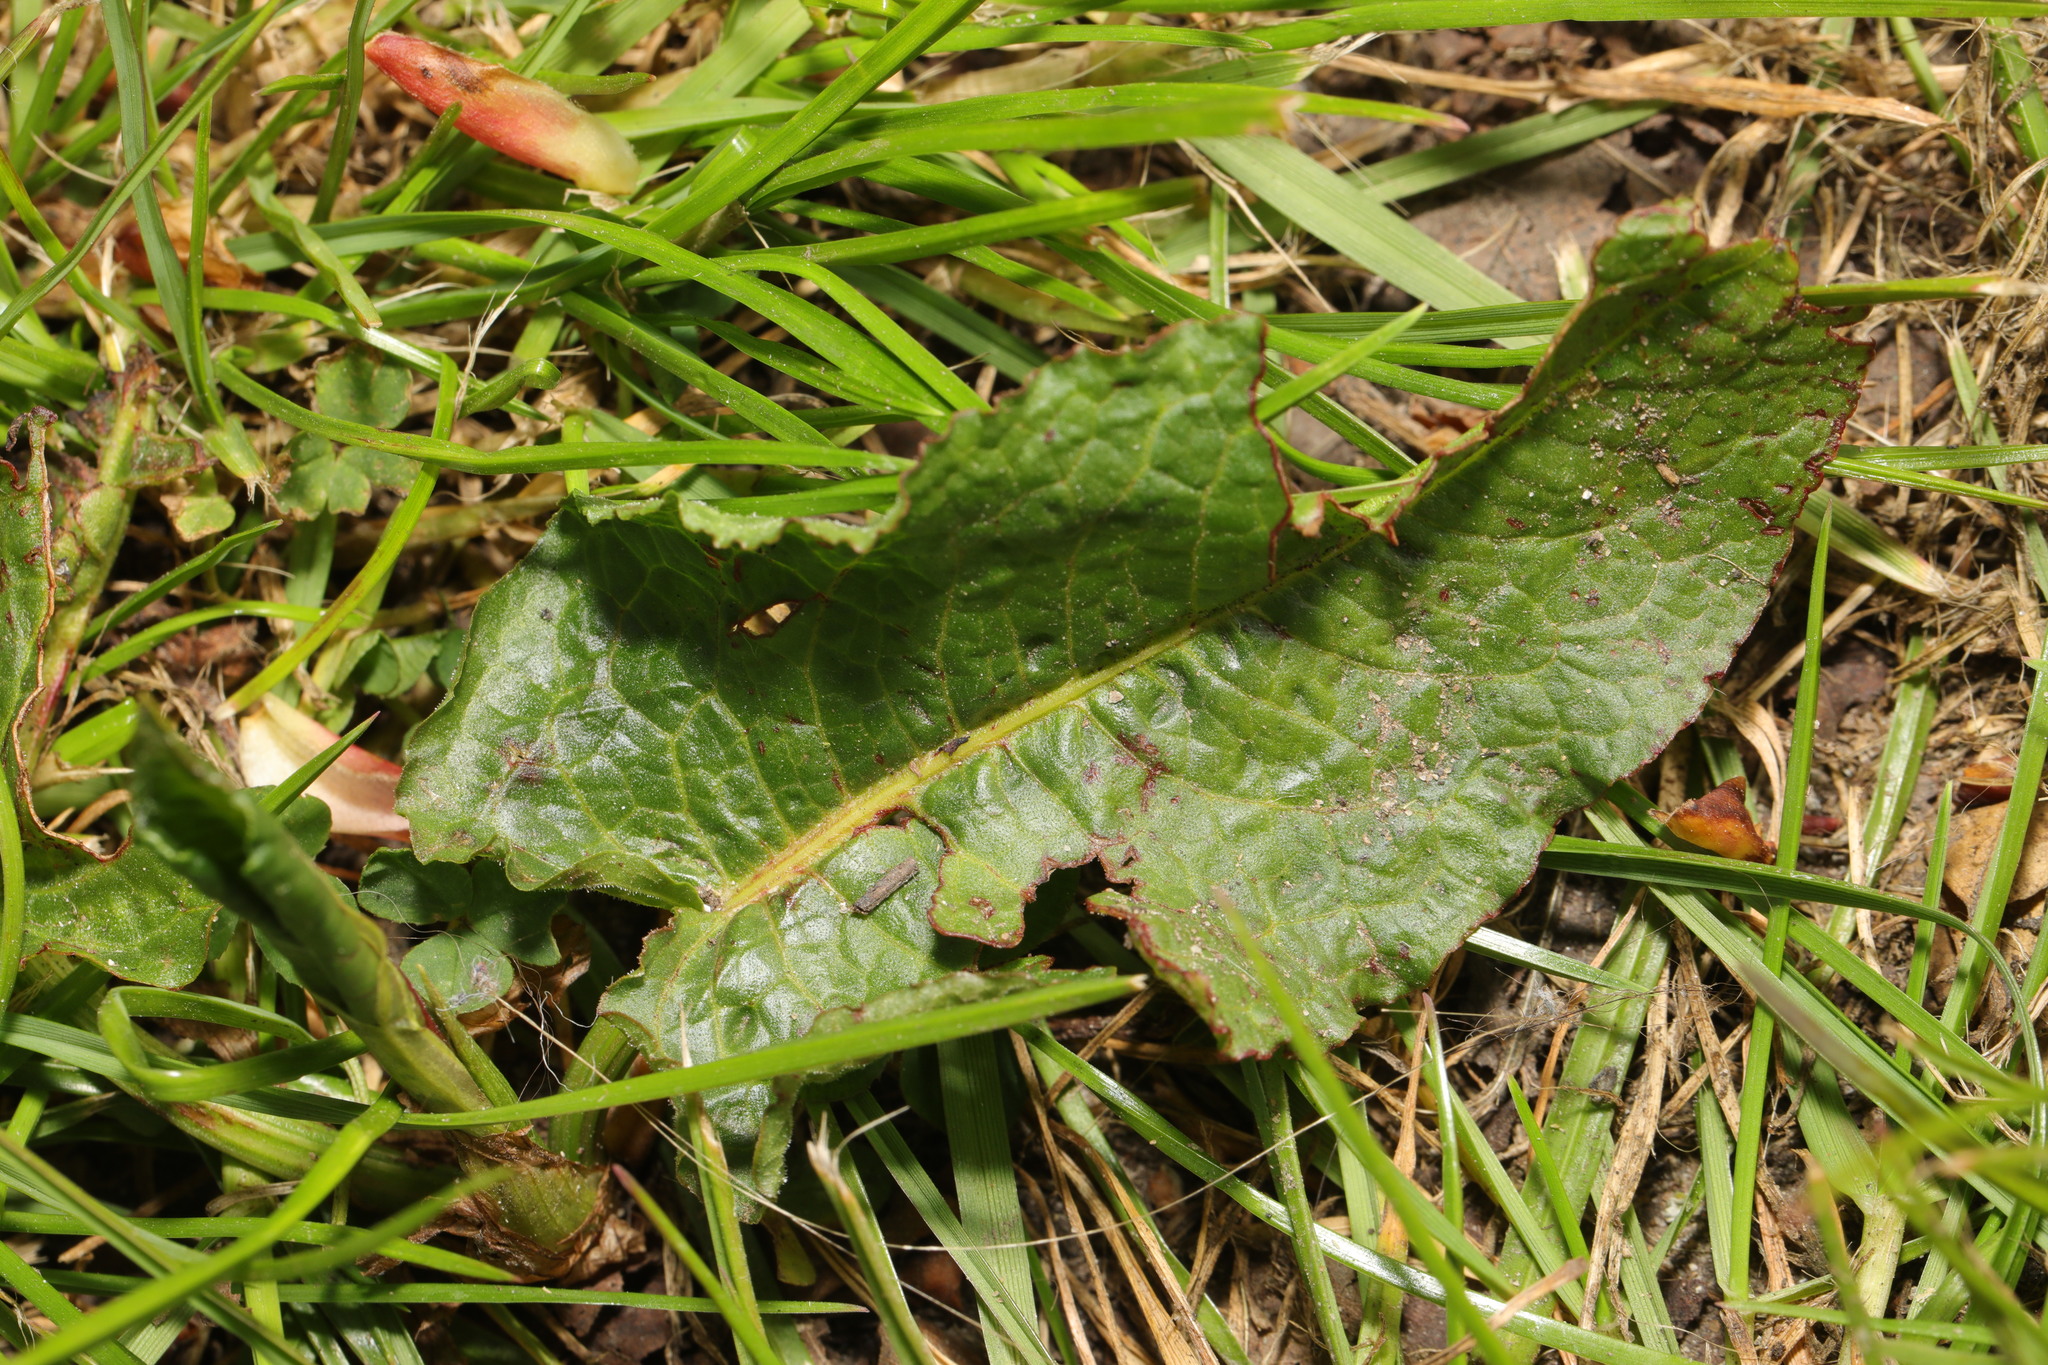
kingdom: Plantae
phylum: Tracheophyta
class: Magnoliopsida
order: Caryophyllales
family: Polygonaceae
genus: Rumex
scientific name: Rumex obtusifolius
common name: Bitter dock
